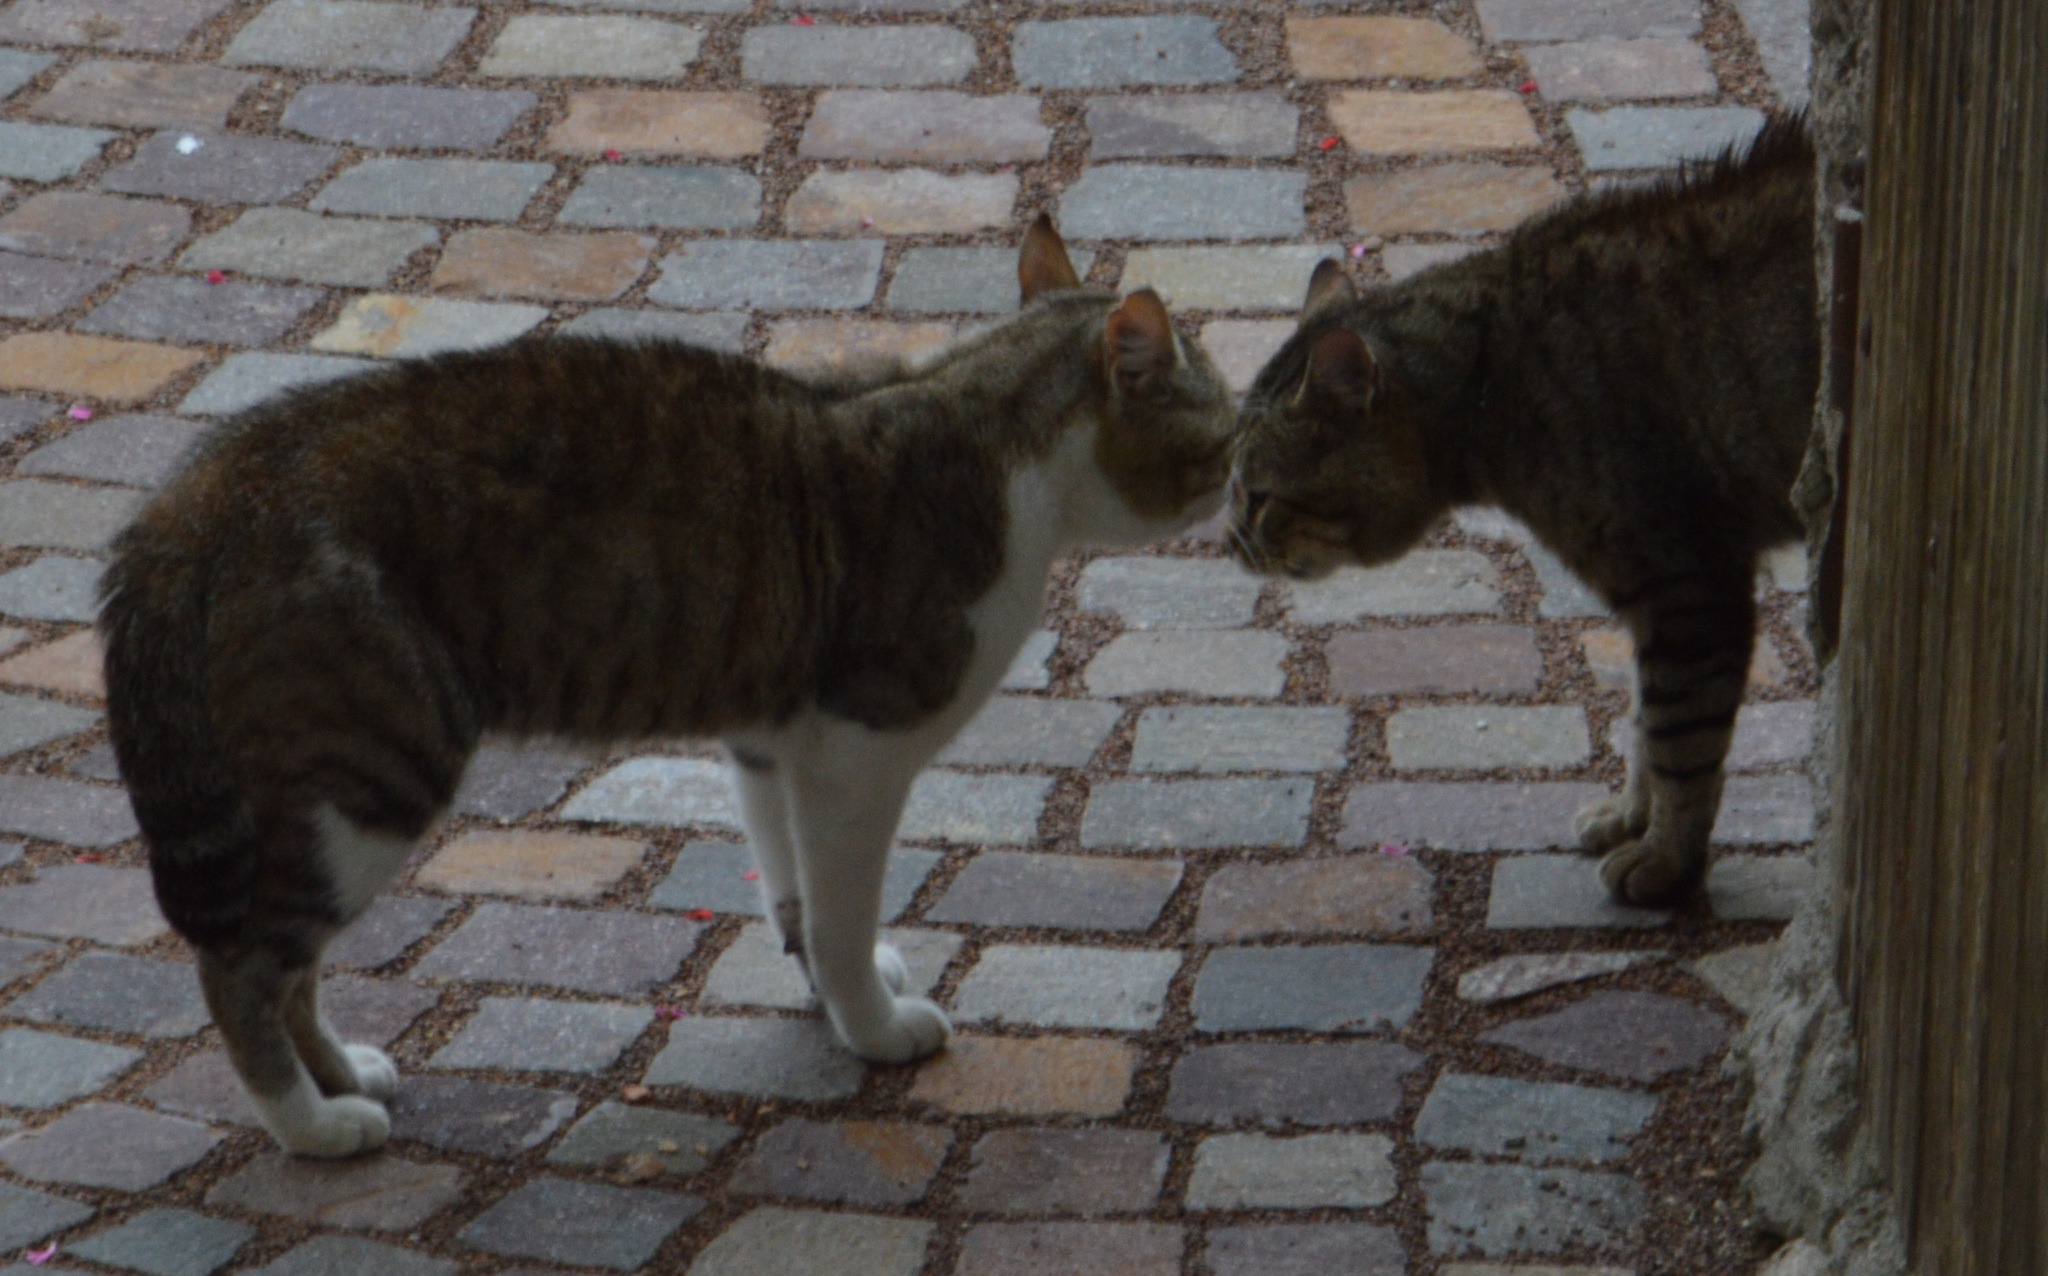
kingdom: Animalia
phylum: Chordata
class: Mammalia
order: Carnivora
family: Felidae
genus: Felis
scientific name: Felis catus
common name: Domestic cat
